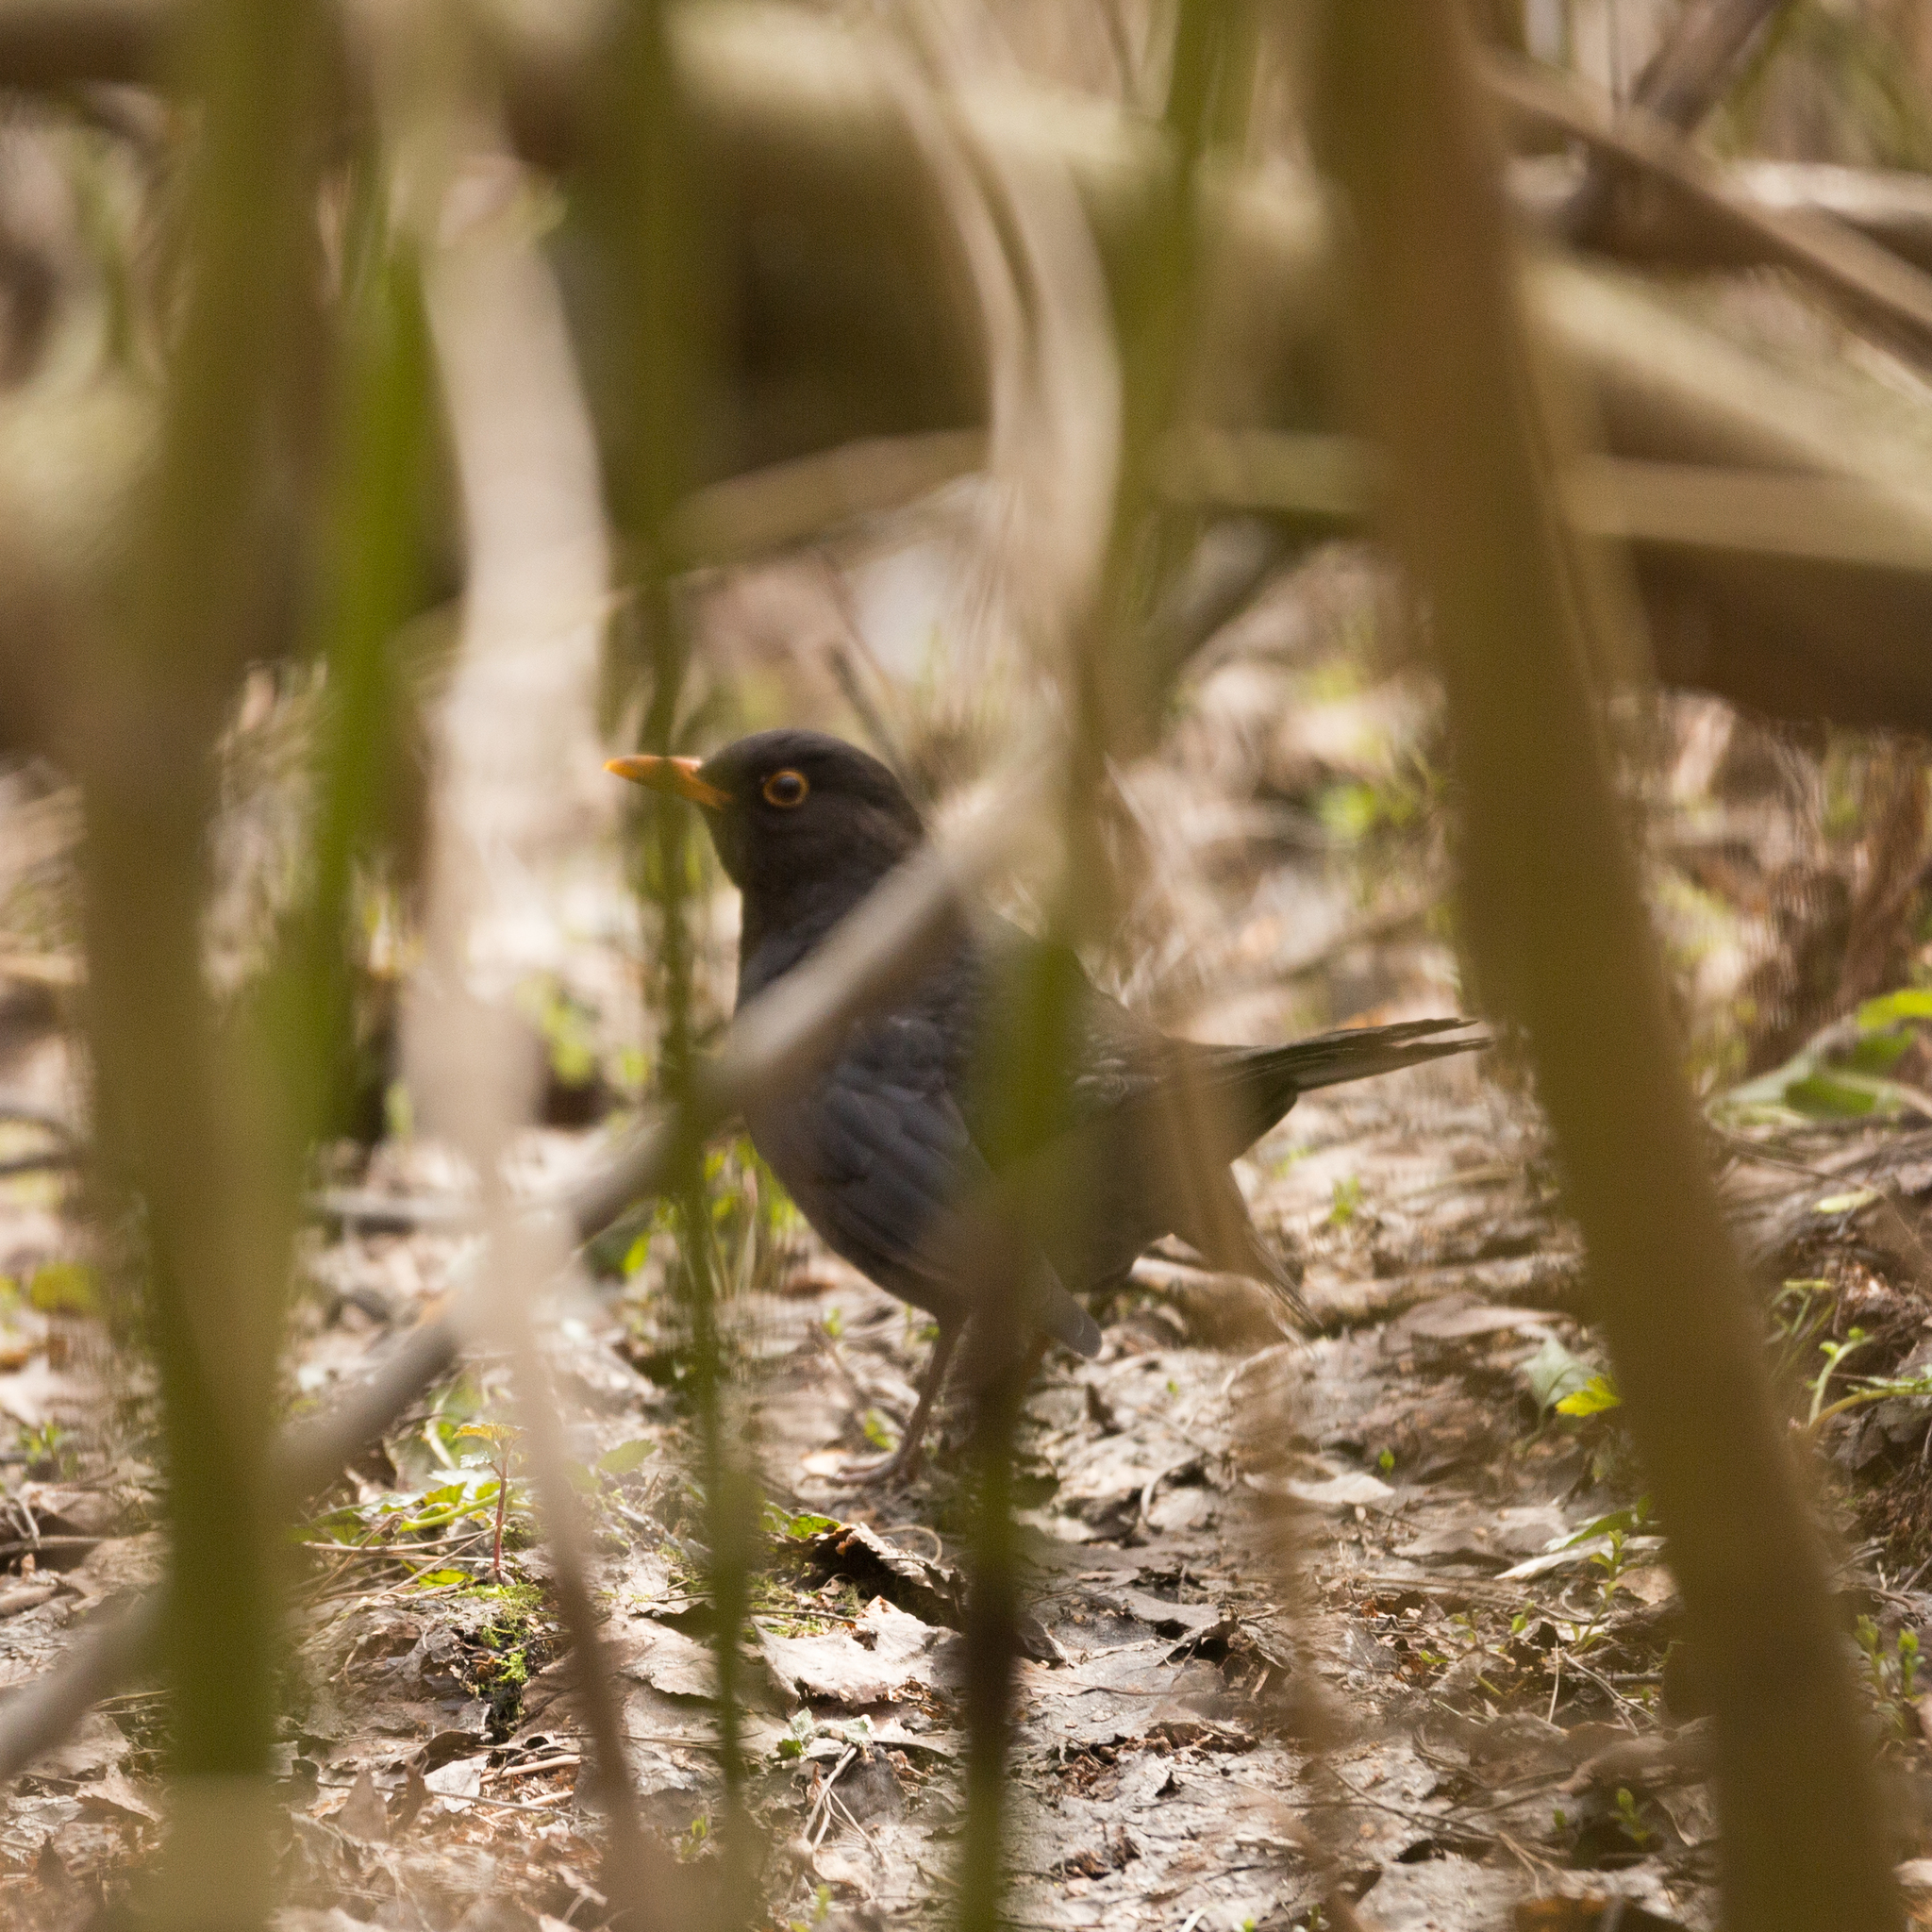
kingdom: Animalia
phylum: Chordata
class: Aves
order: Passeriformes
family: Turdidae
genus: Turdus
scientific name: Turdus merula
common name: Common blackbird
